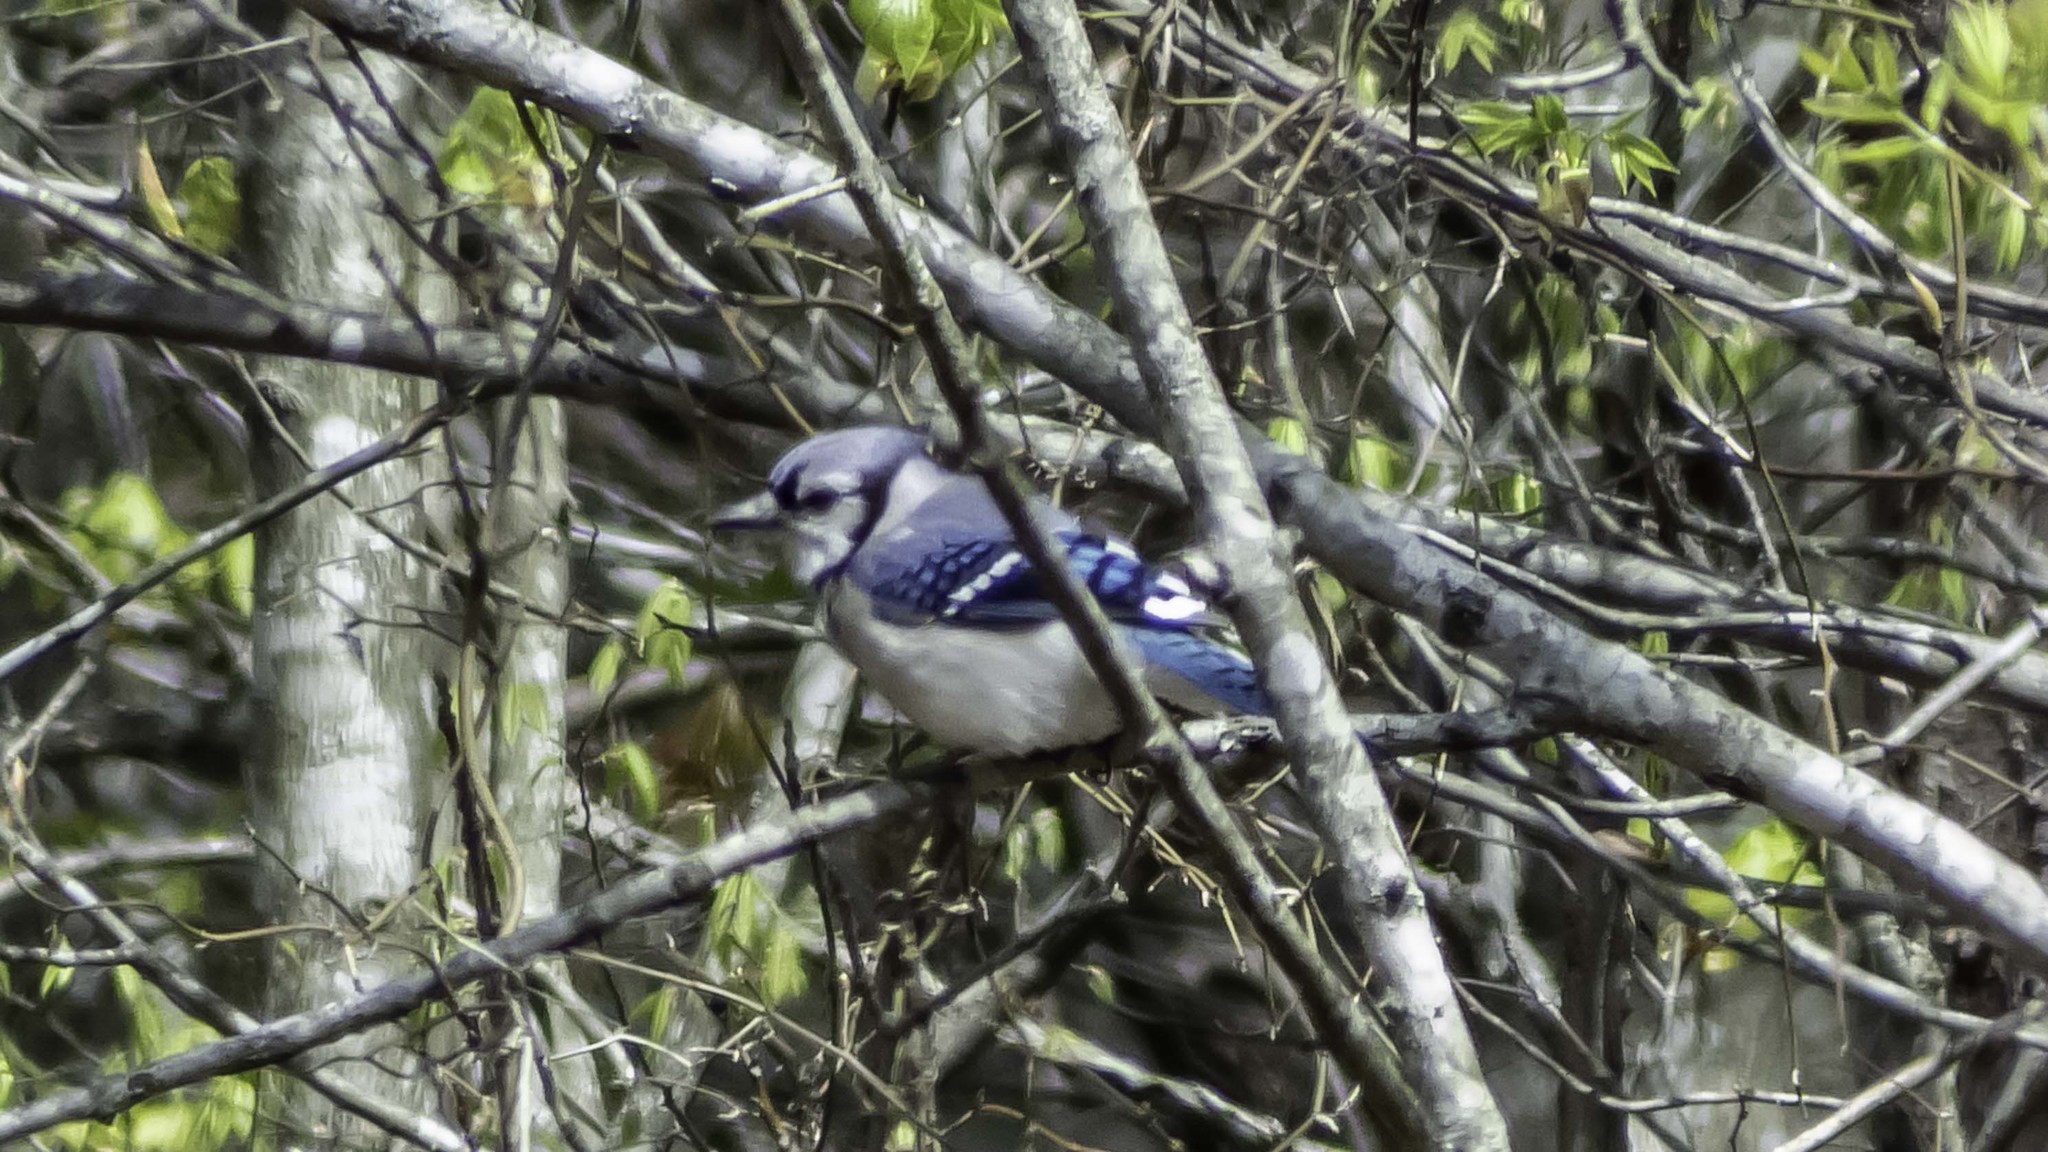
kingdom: Animalia
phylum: Chordata
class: Aves
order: Passeriformes
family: Corvidae
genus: Cyanocitta
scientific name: Cyanocitta cristata
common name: Blue jay
